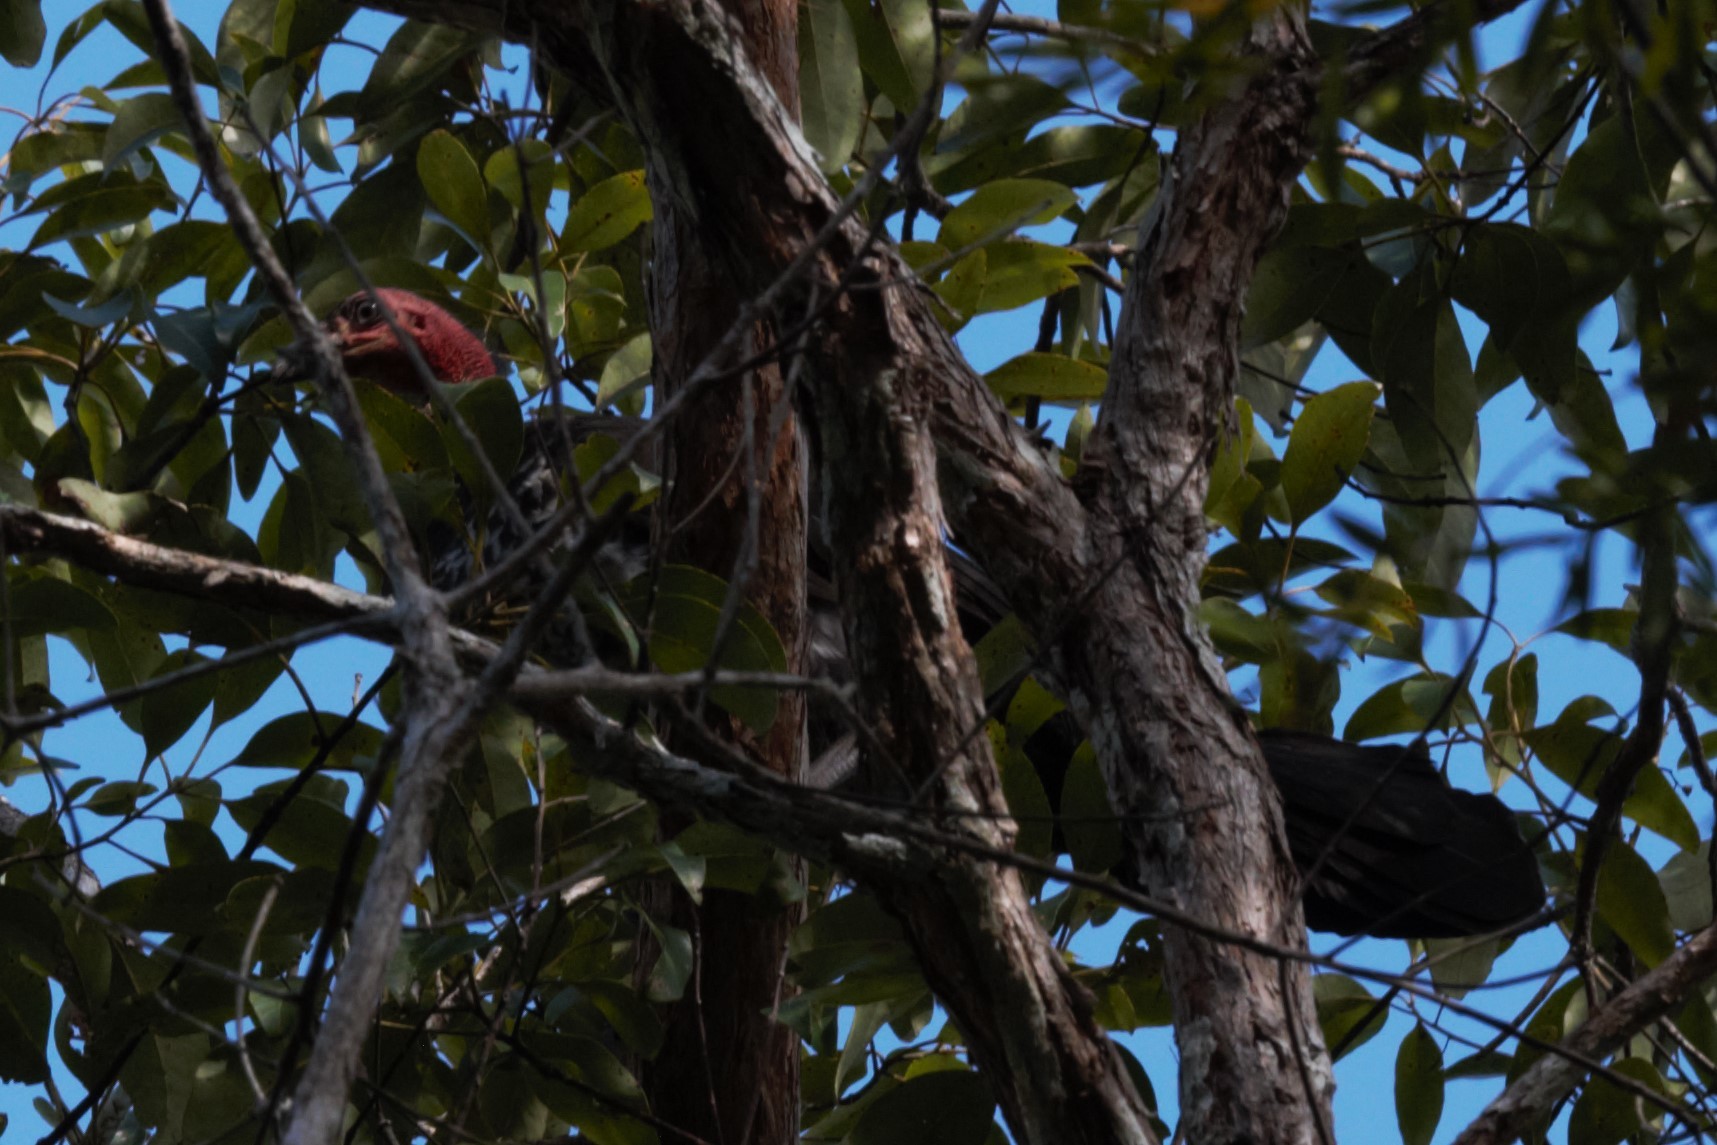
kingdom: Animalia
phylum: Chordata
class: Aves
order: Galliformes
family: Megapodiidae
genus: Alectura
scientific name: Alectura lathami
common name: Australian brushturkey
